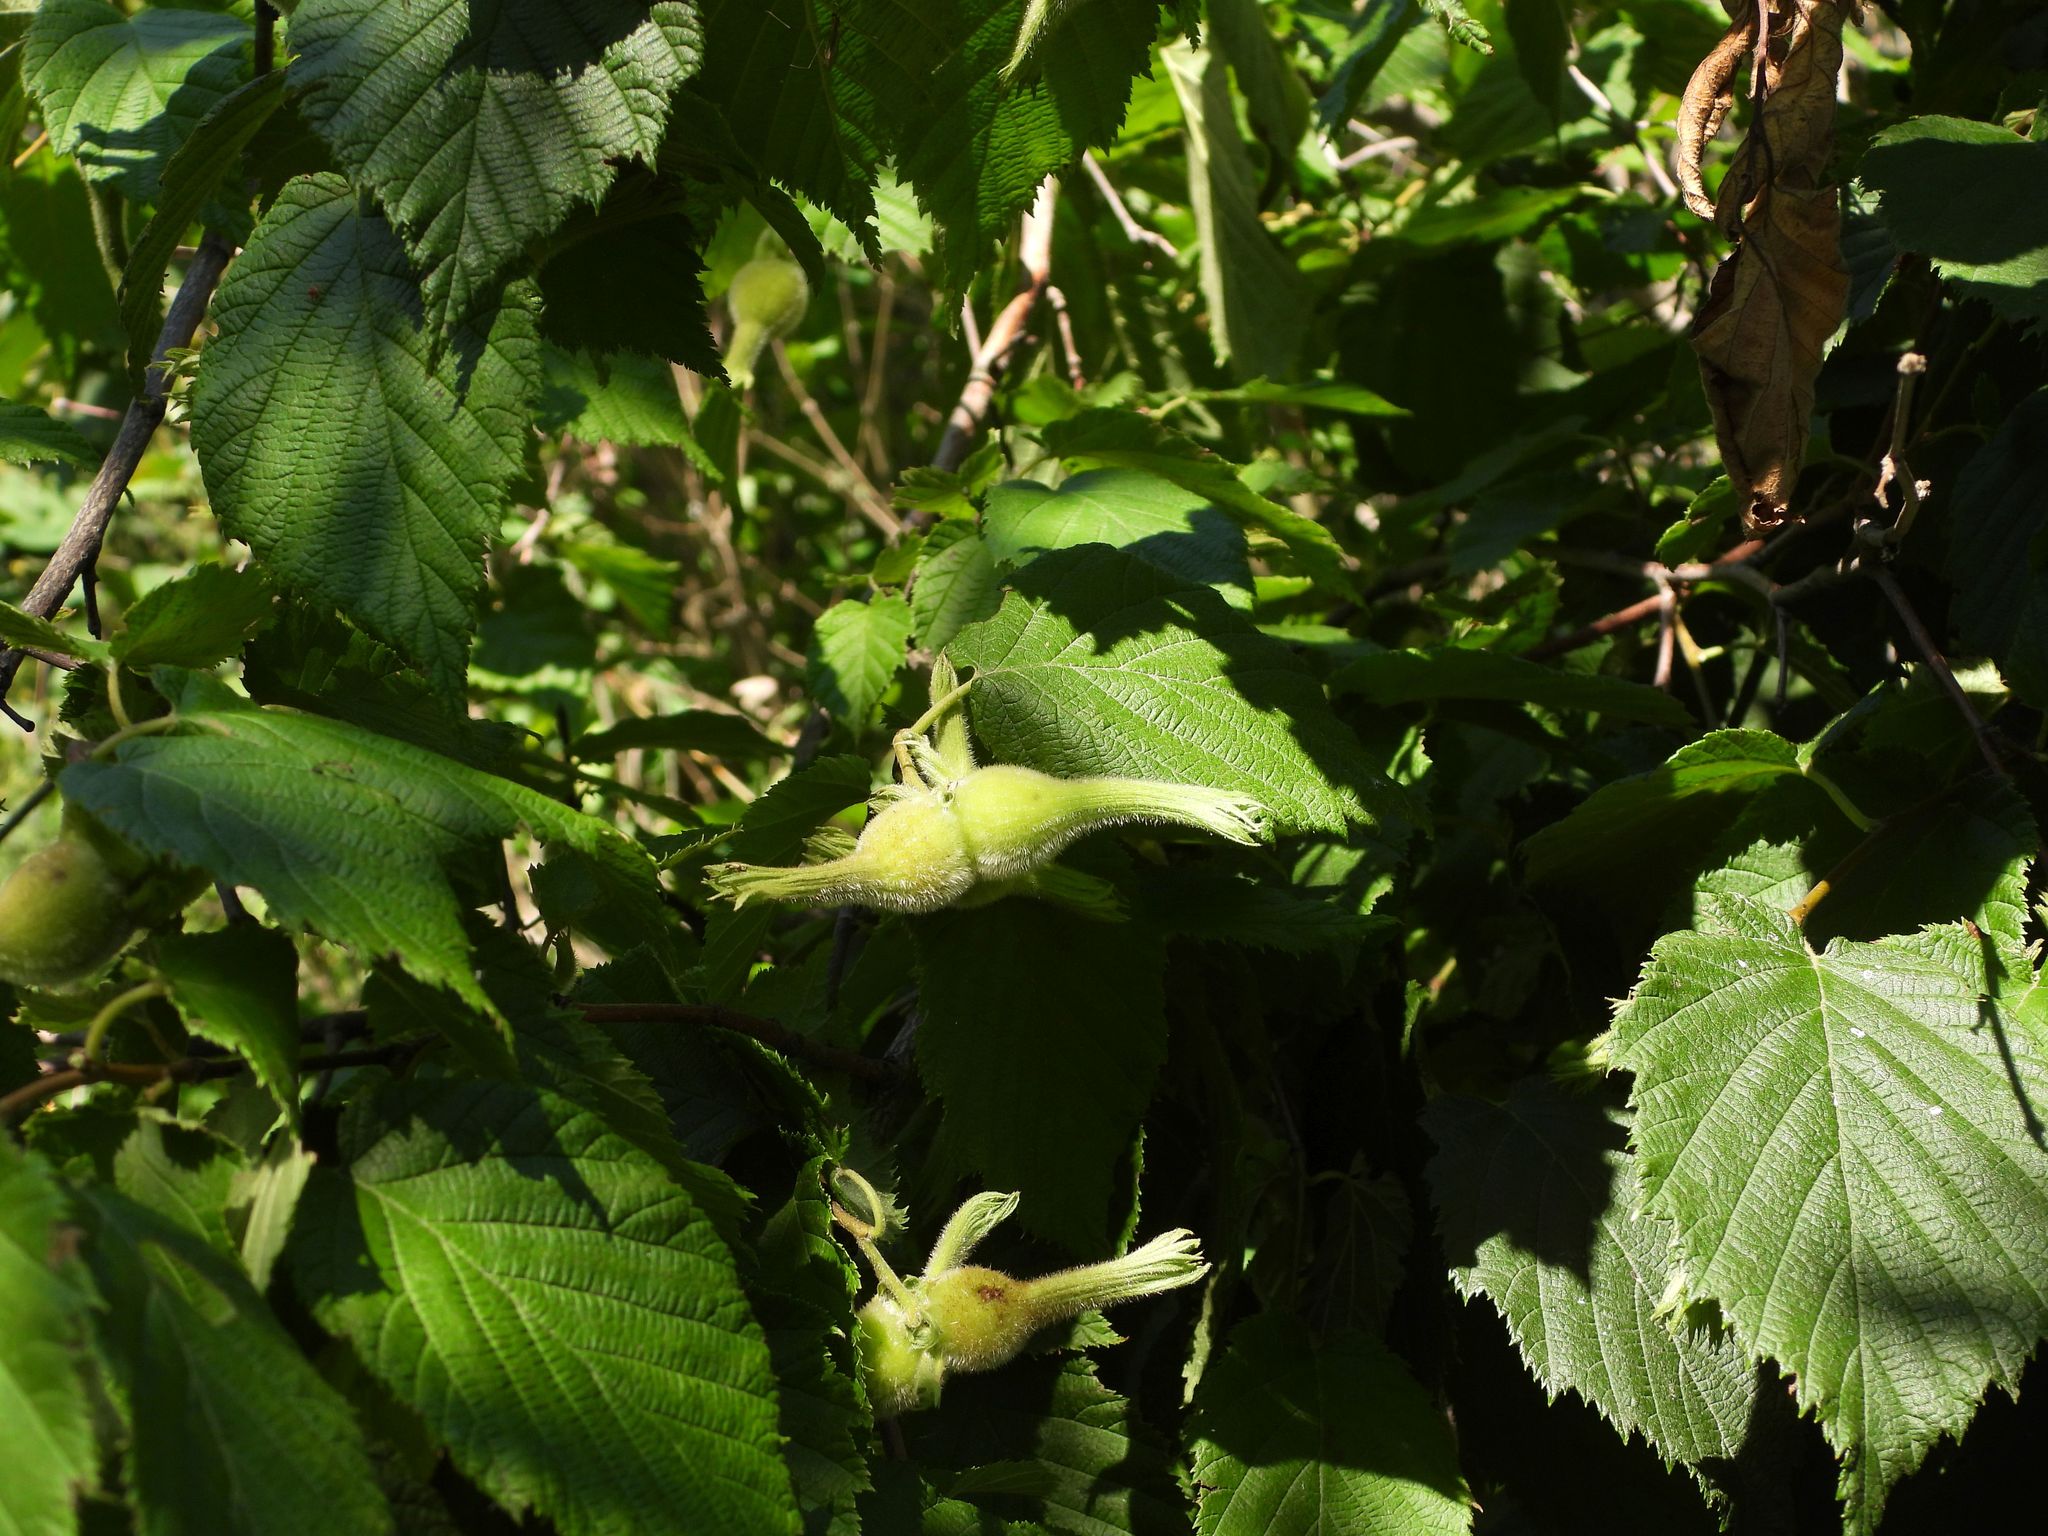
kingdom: Plantae
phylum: Tracheophyta
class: Magnoliopsida
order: Fagales
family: Betulaceae
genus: Corylus
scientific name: Corylus cornuta
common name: Beaked hazel
